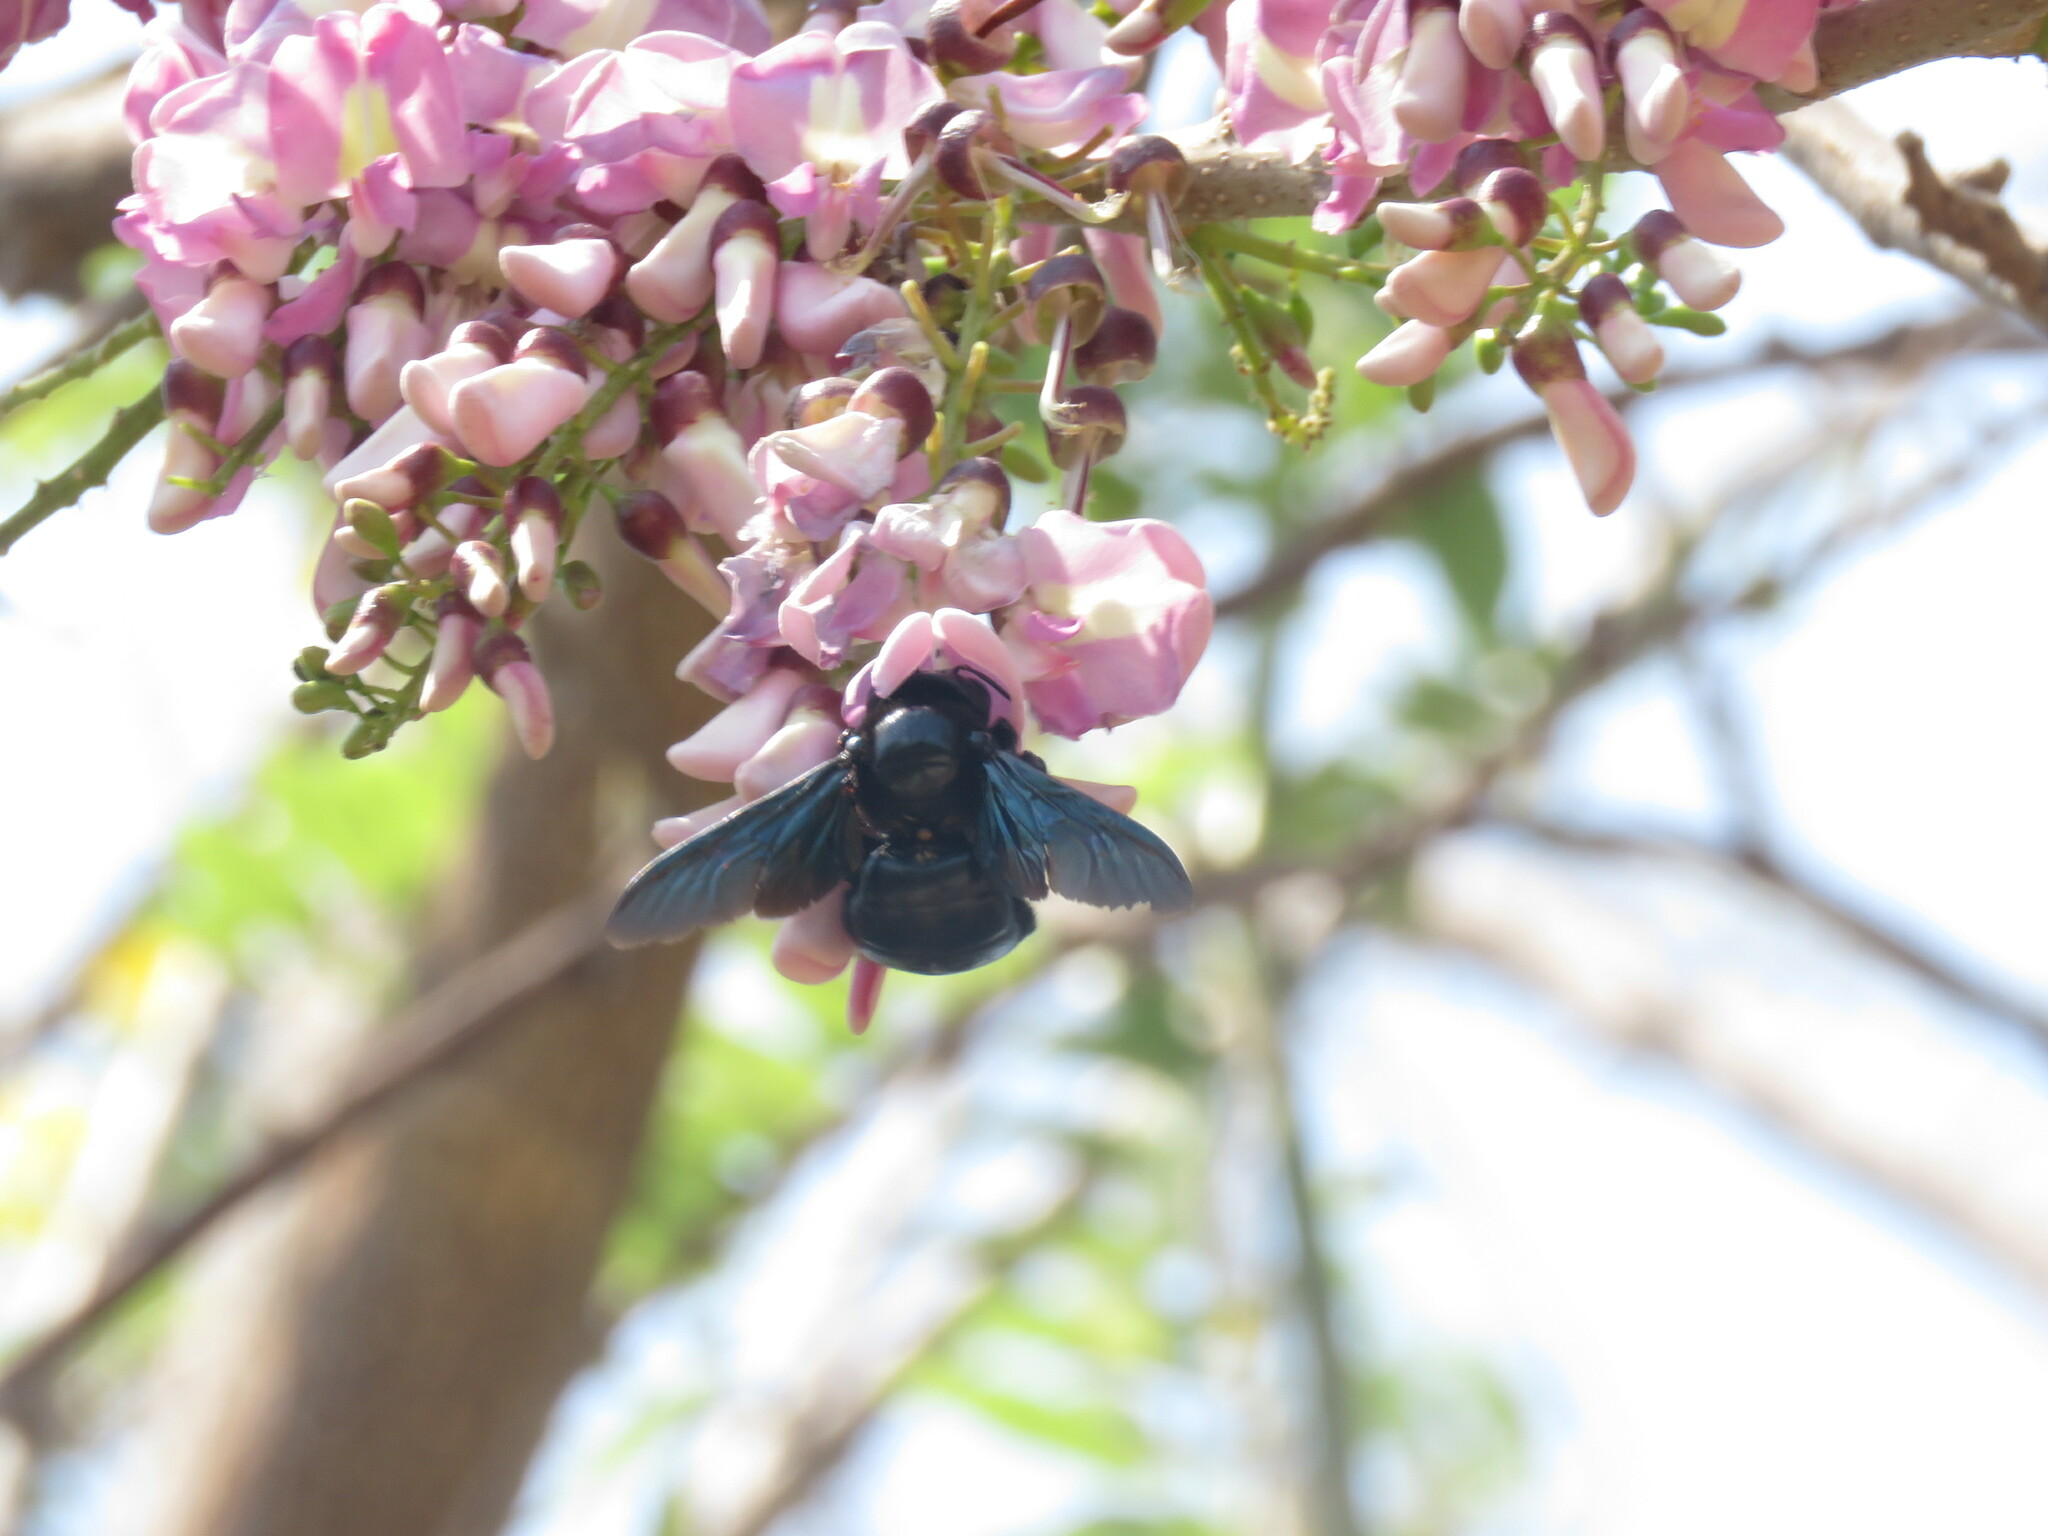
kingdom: Animalia
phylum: Arthropoda
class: Insecta
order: Hymenoptera
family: Apidae
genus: Xylocopa
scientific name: Xylocopa fimbriata
